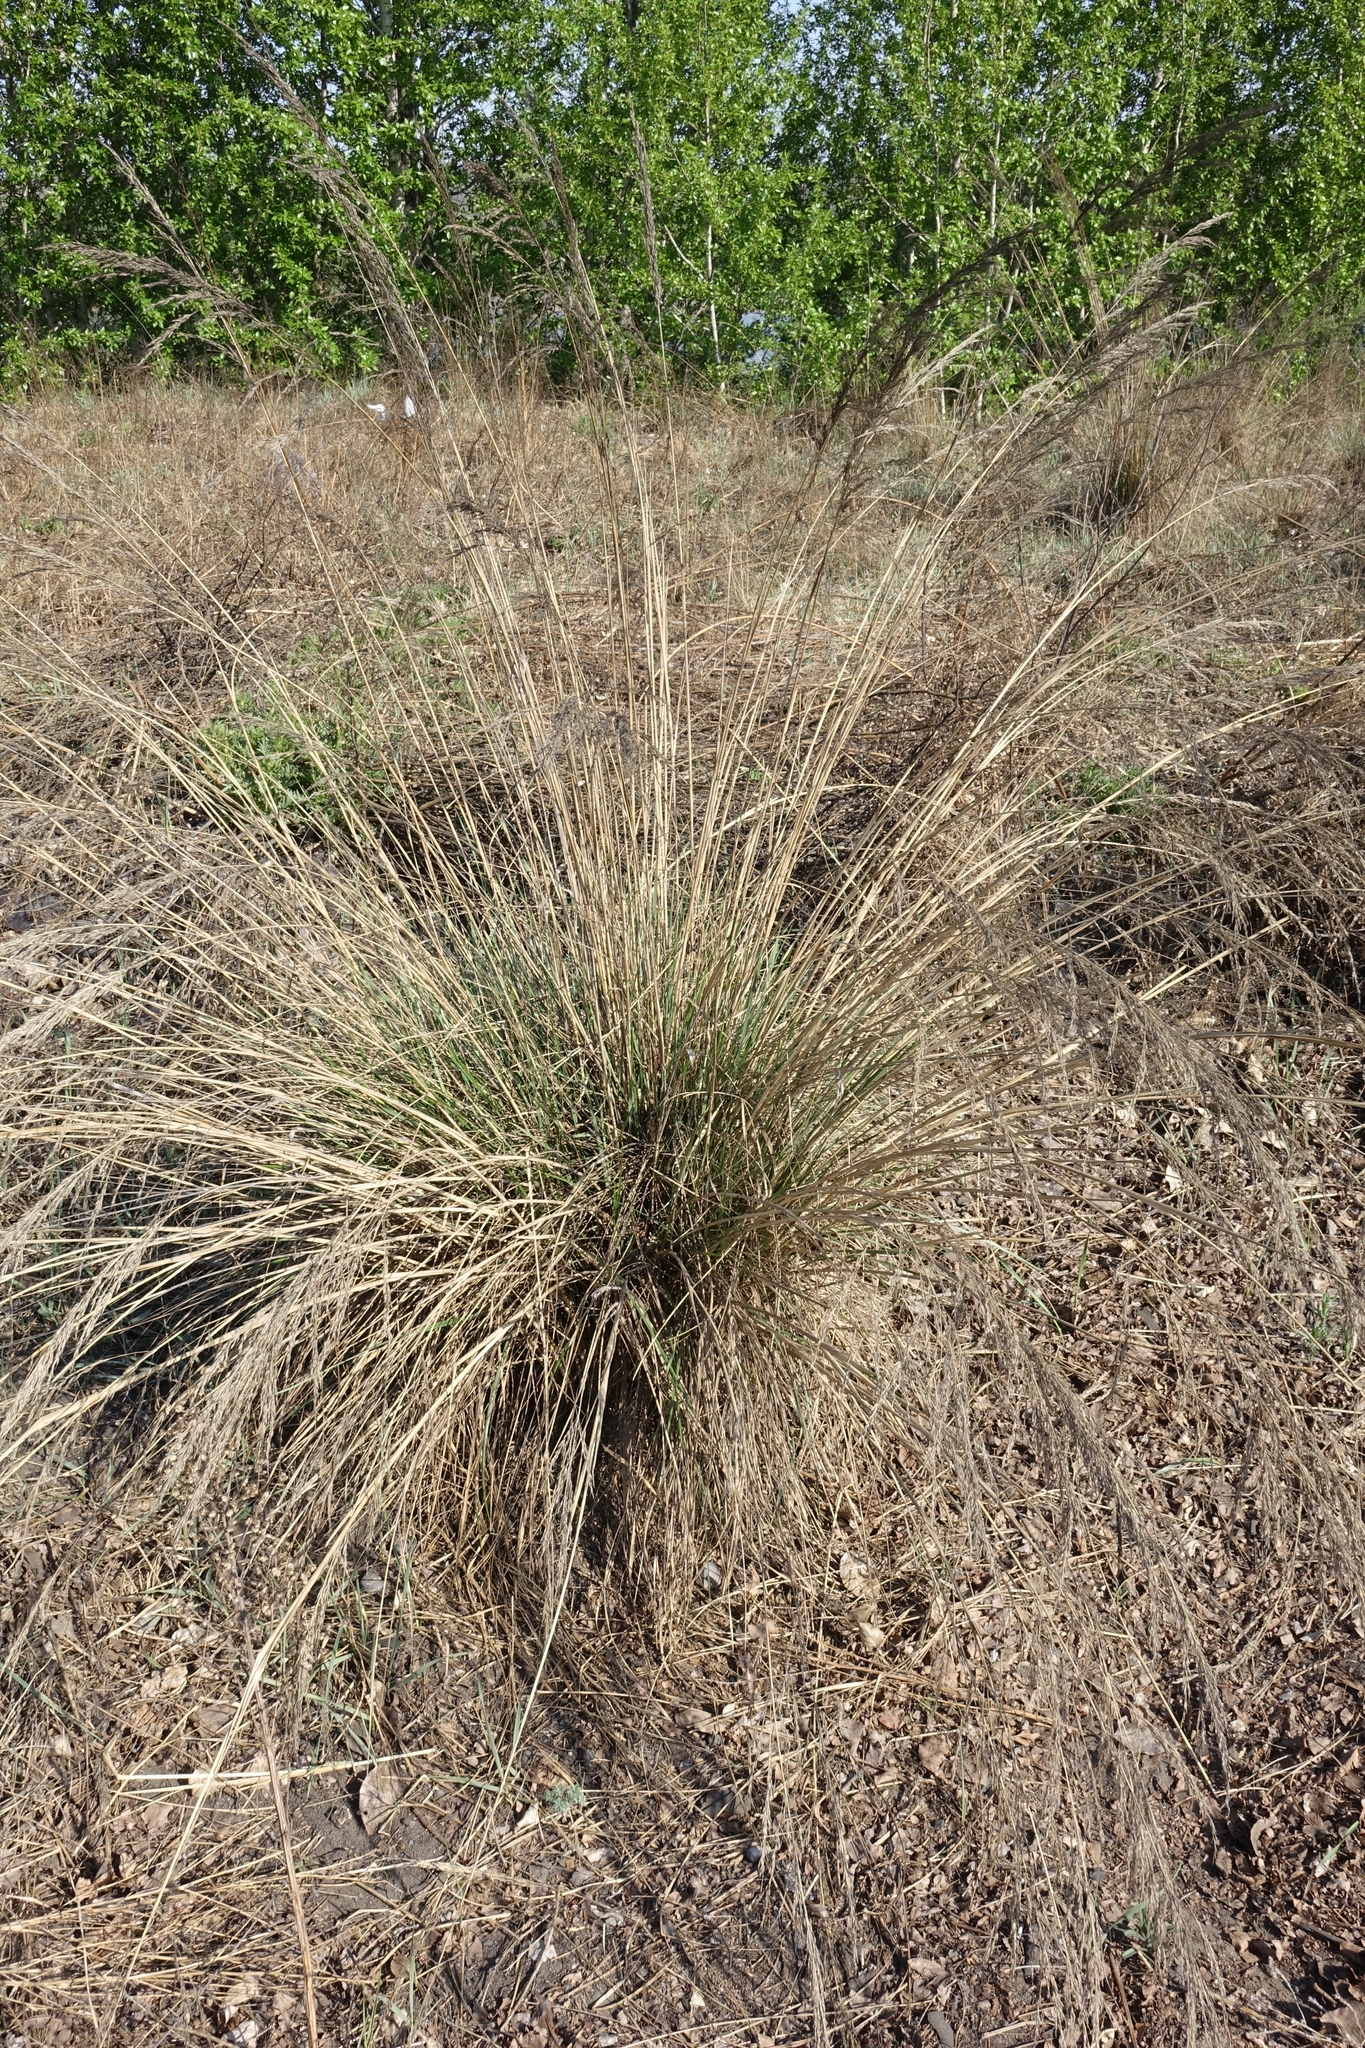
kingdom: Plantae
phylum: Tracheophyta
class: Liliopsida
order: Poales
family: Poaceae
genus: Neotrinia
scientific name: Neotrinia splendens
